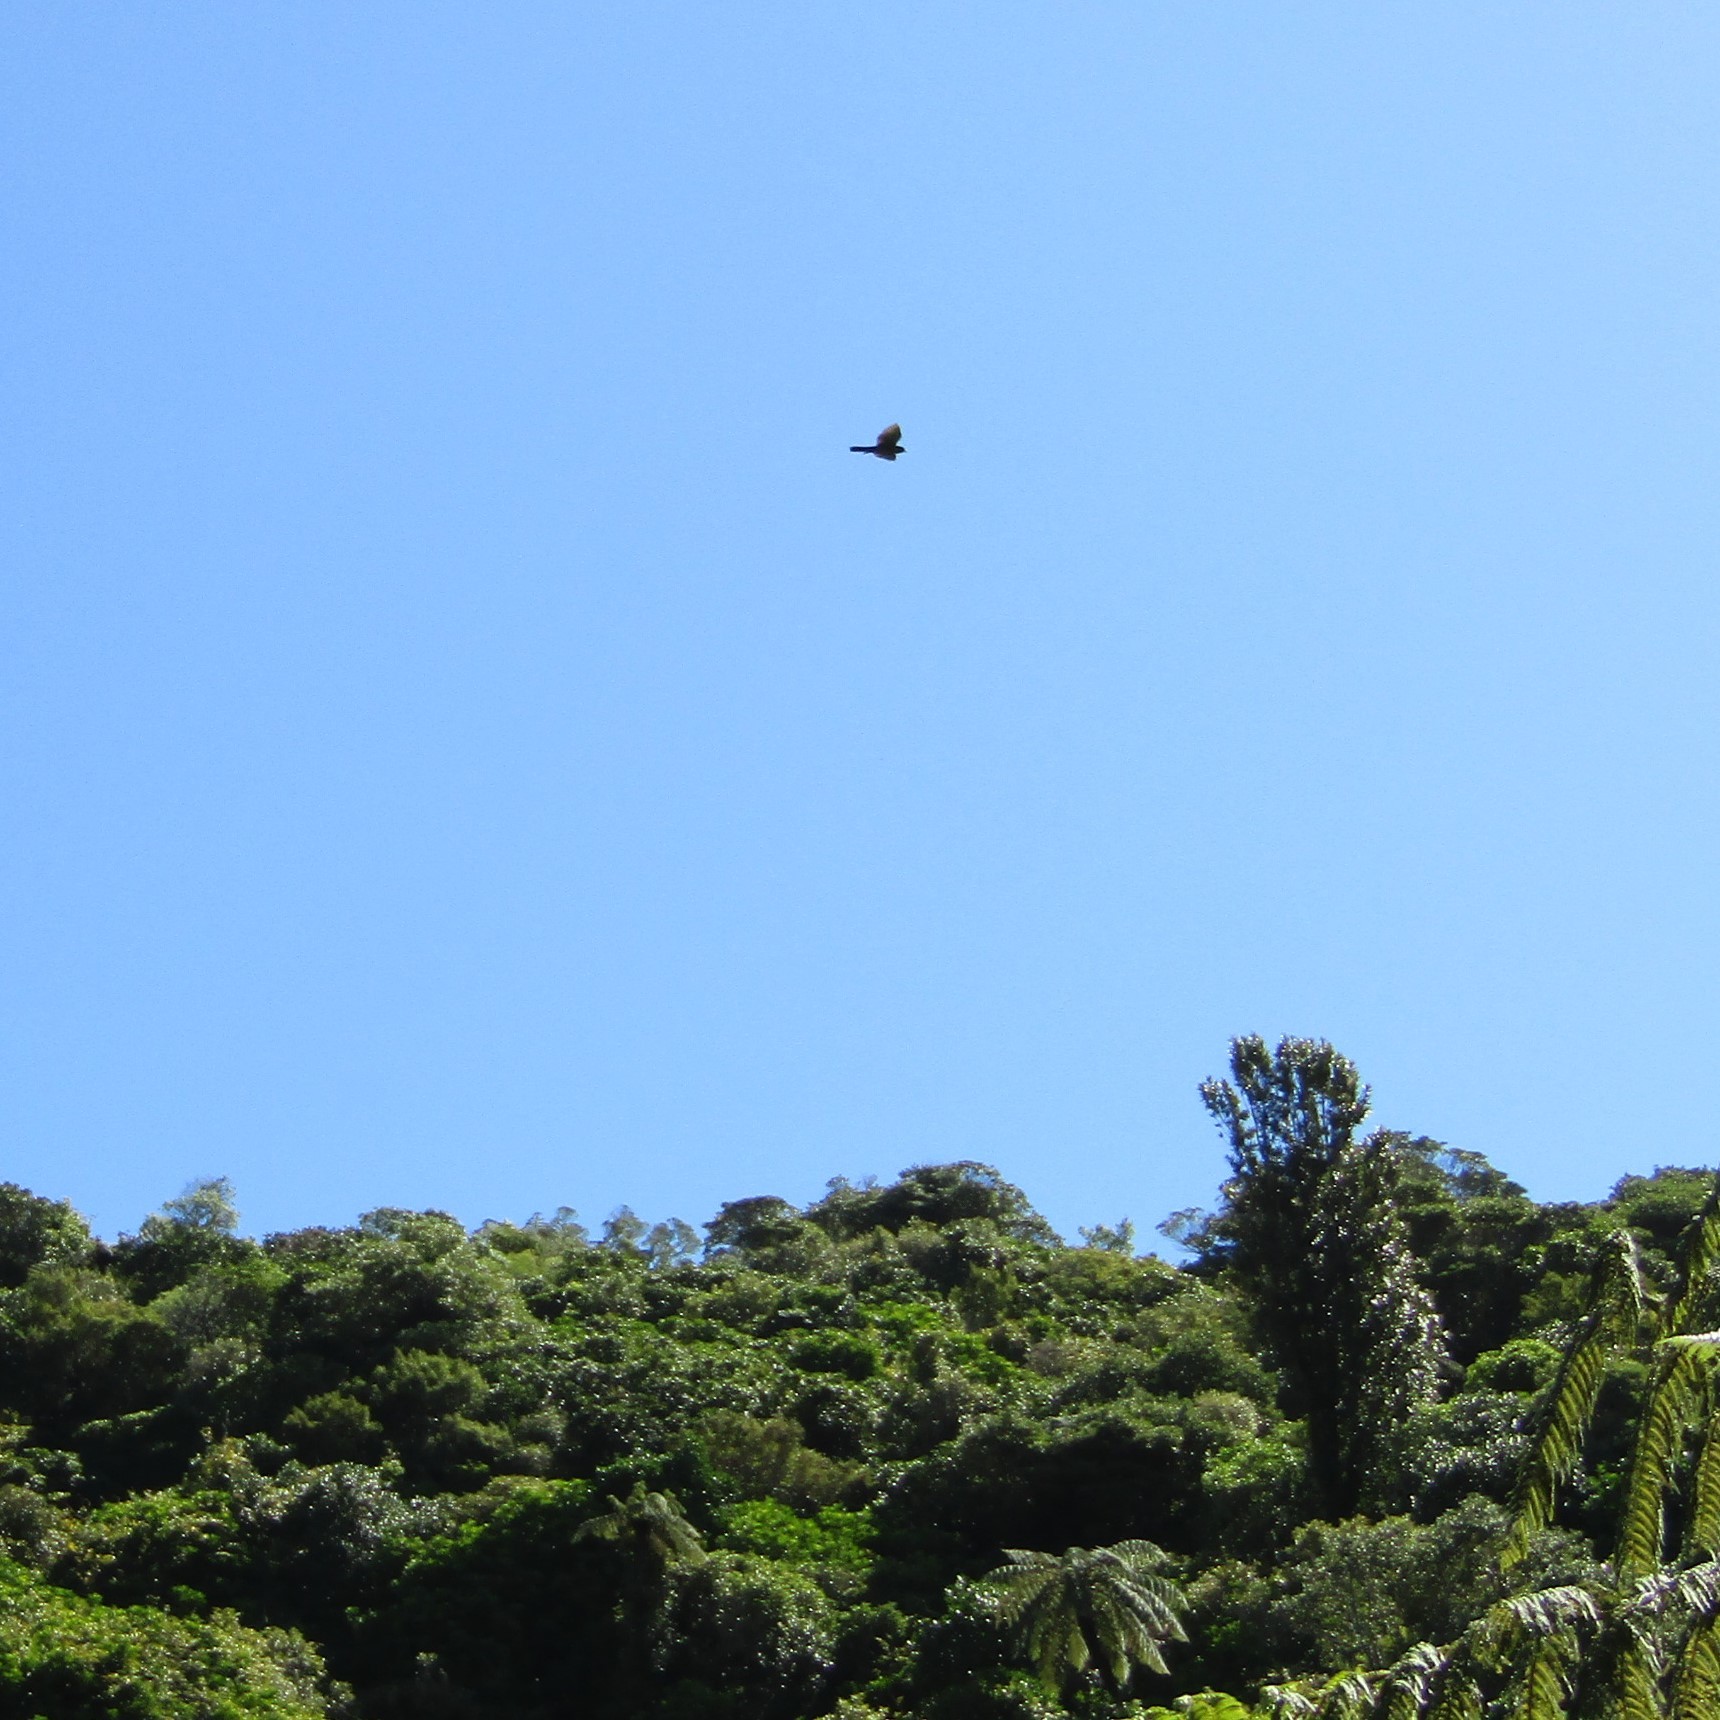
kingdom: Animalia
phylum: Chordata
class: Aves
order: Falconiformes
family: Falconidae
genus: Falco
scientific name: Falco novaeseelandiae
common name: New zealand falcon
